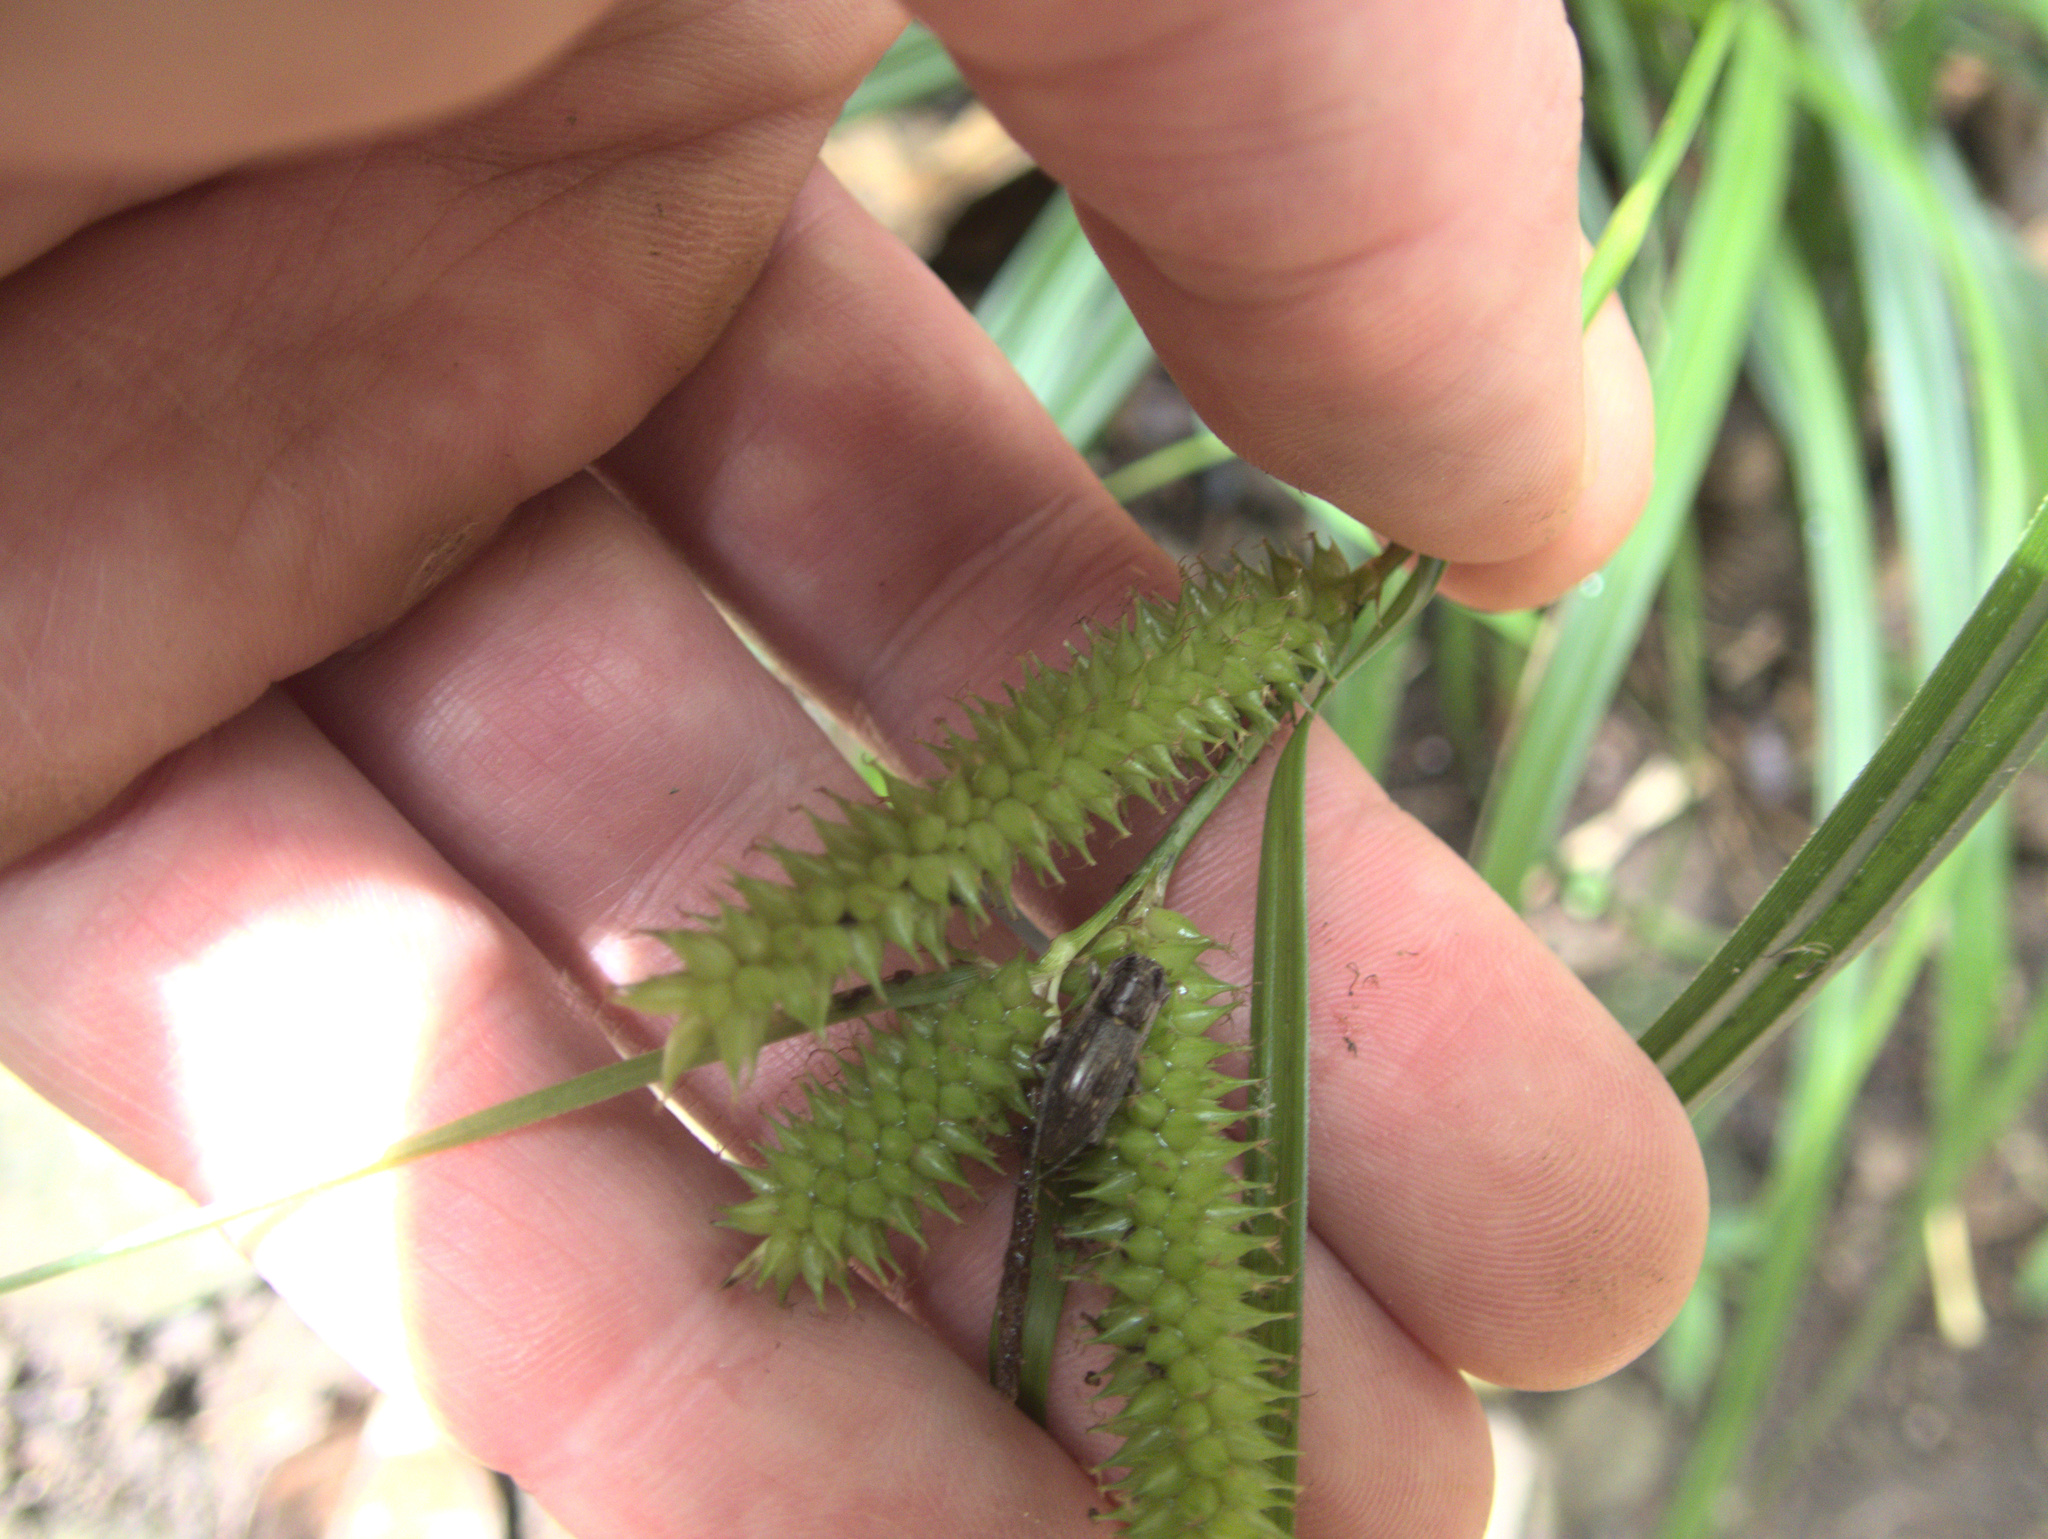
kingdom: Plantae
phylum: Tracheophyta
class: Liliopsida
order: Poales
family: Cyperaceae
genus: Carex
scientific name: Carex forsteri
